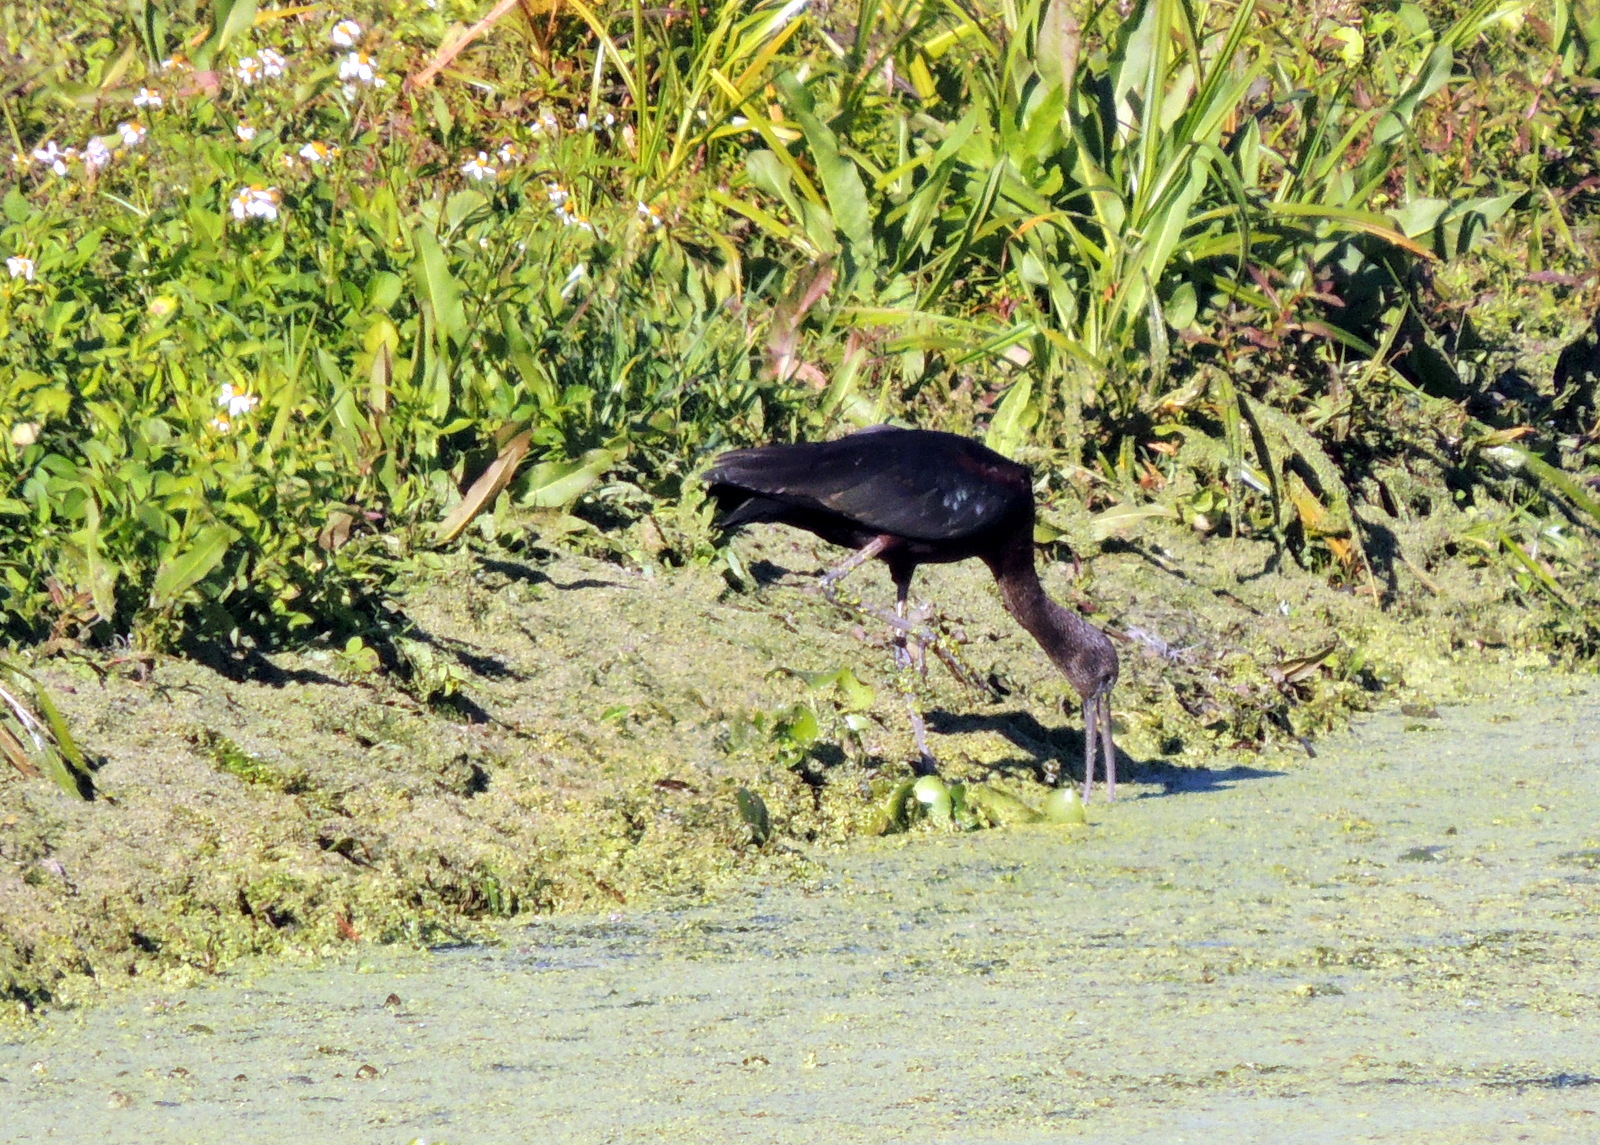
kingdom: Animalia
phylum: Chordata
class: Aves
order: Pelecaniformes
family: Threskiornithidae
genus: Plegadis
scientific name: Plegadis falcinellus
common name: Glossy ibis
